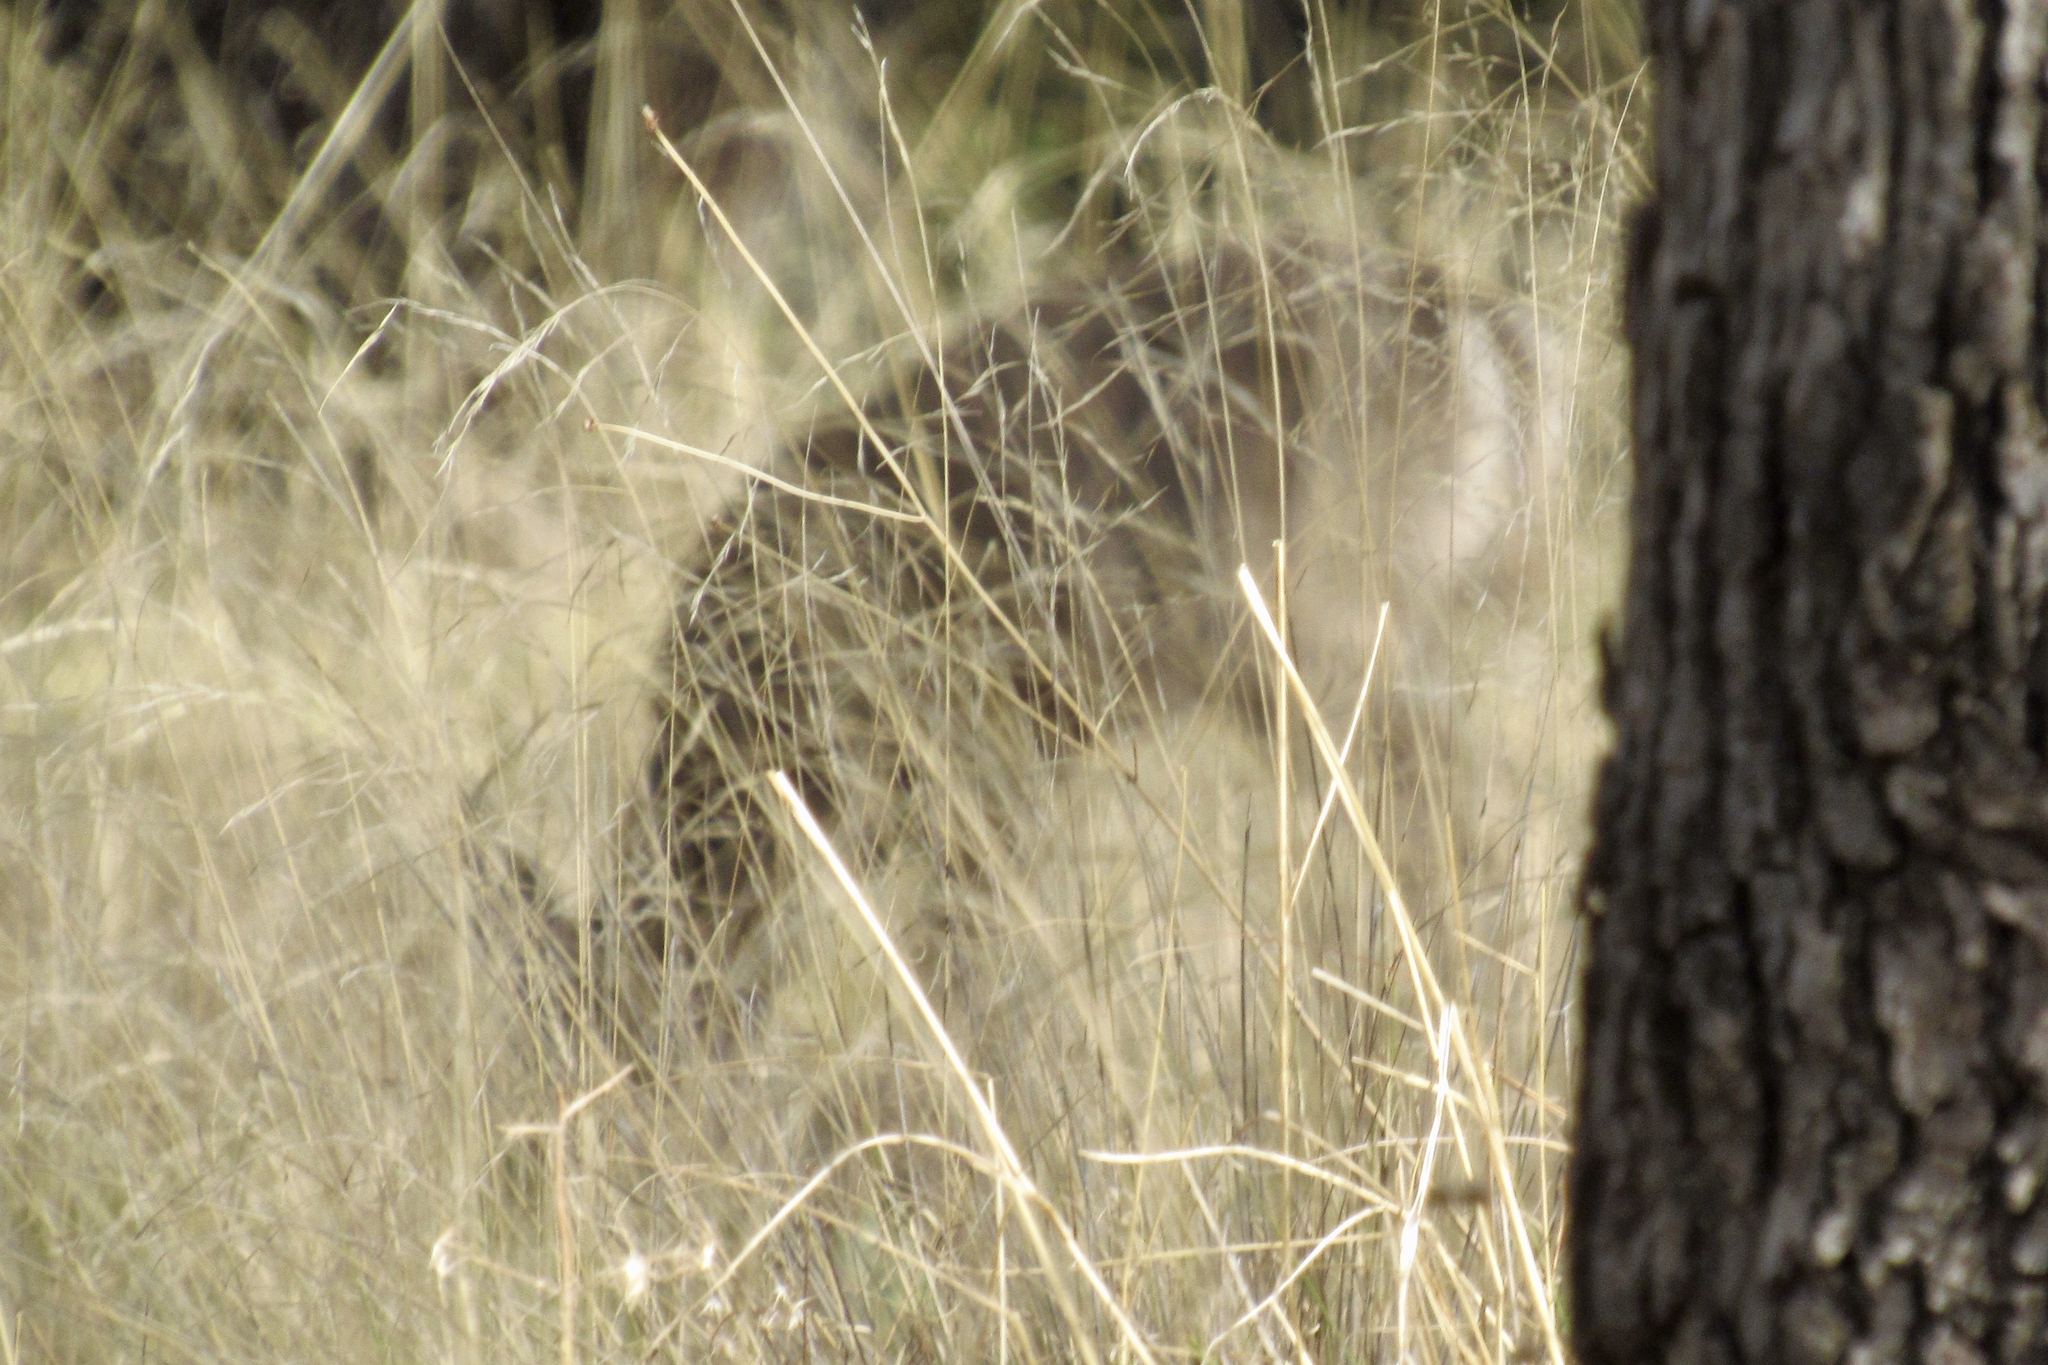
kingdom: Animalia
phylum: Chordata
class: Mammalia
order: Artiodactyla
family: Cervidae
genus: Odocoileus
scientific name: Odocoileus virginianus
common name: White-tailed deer
